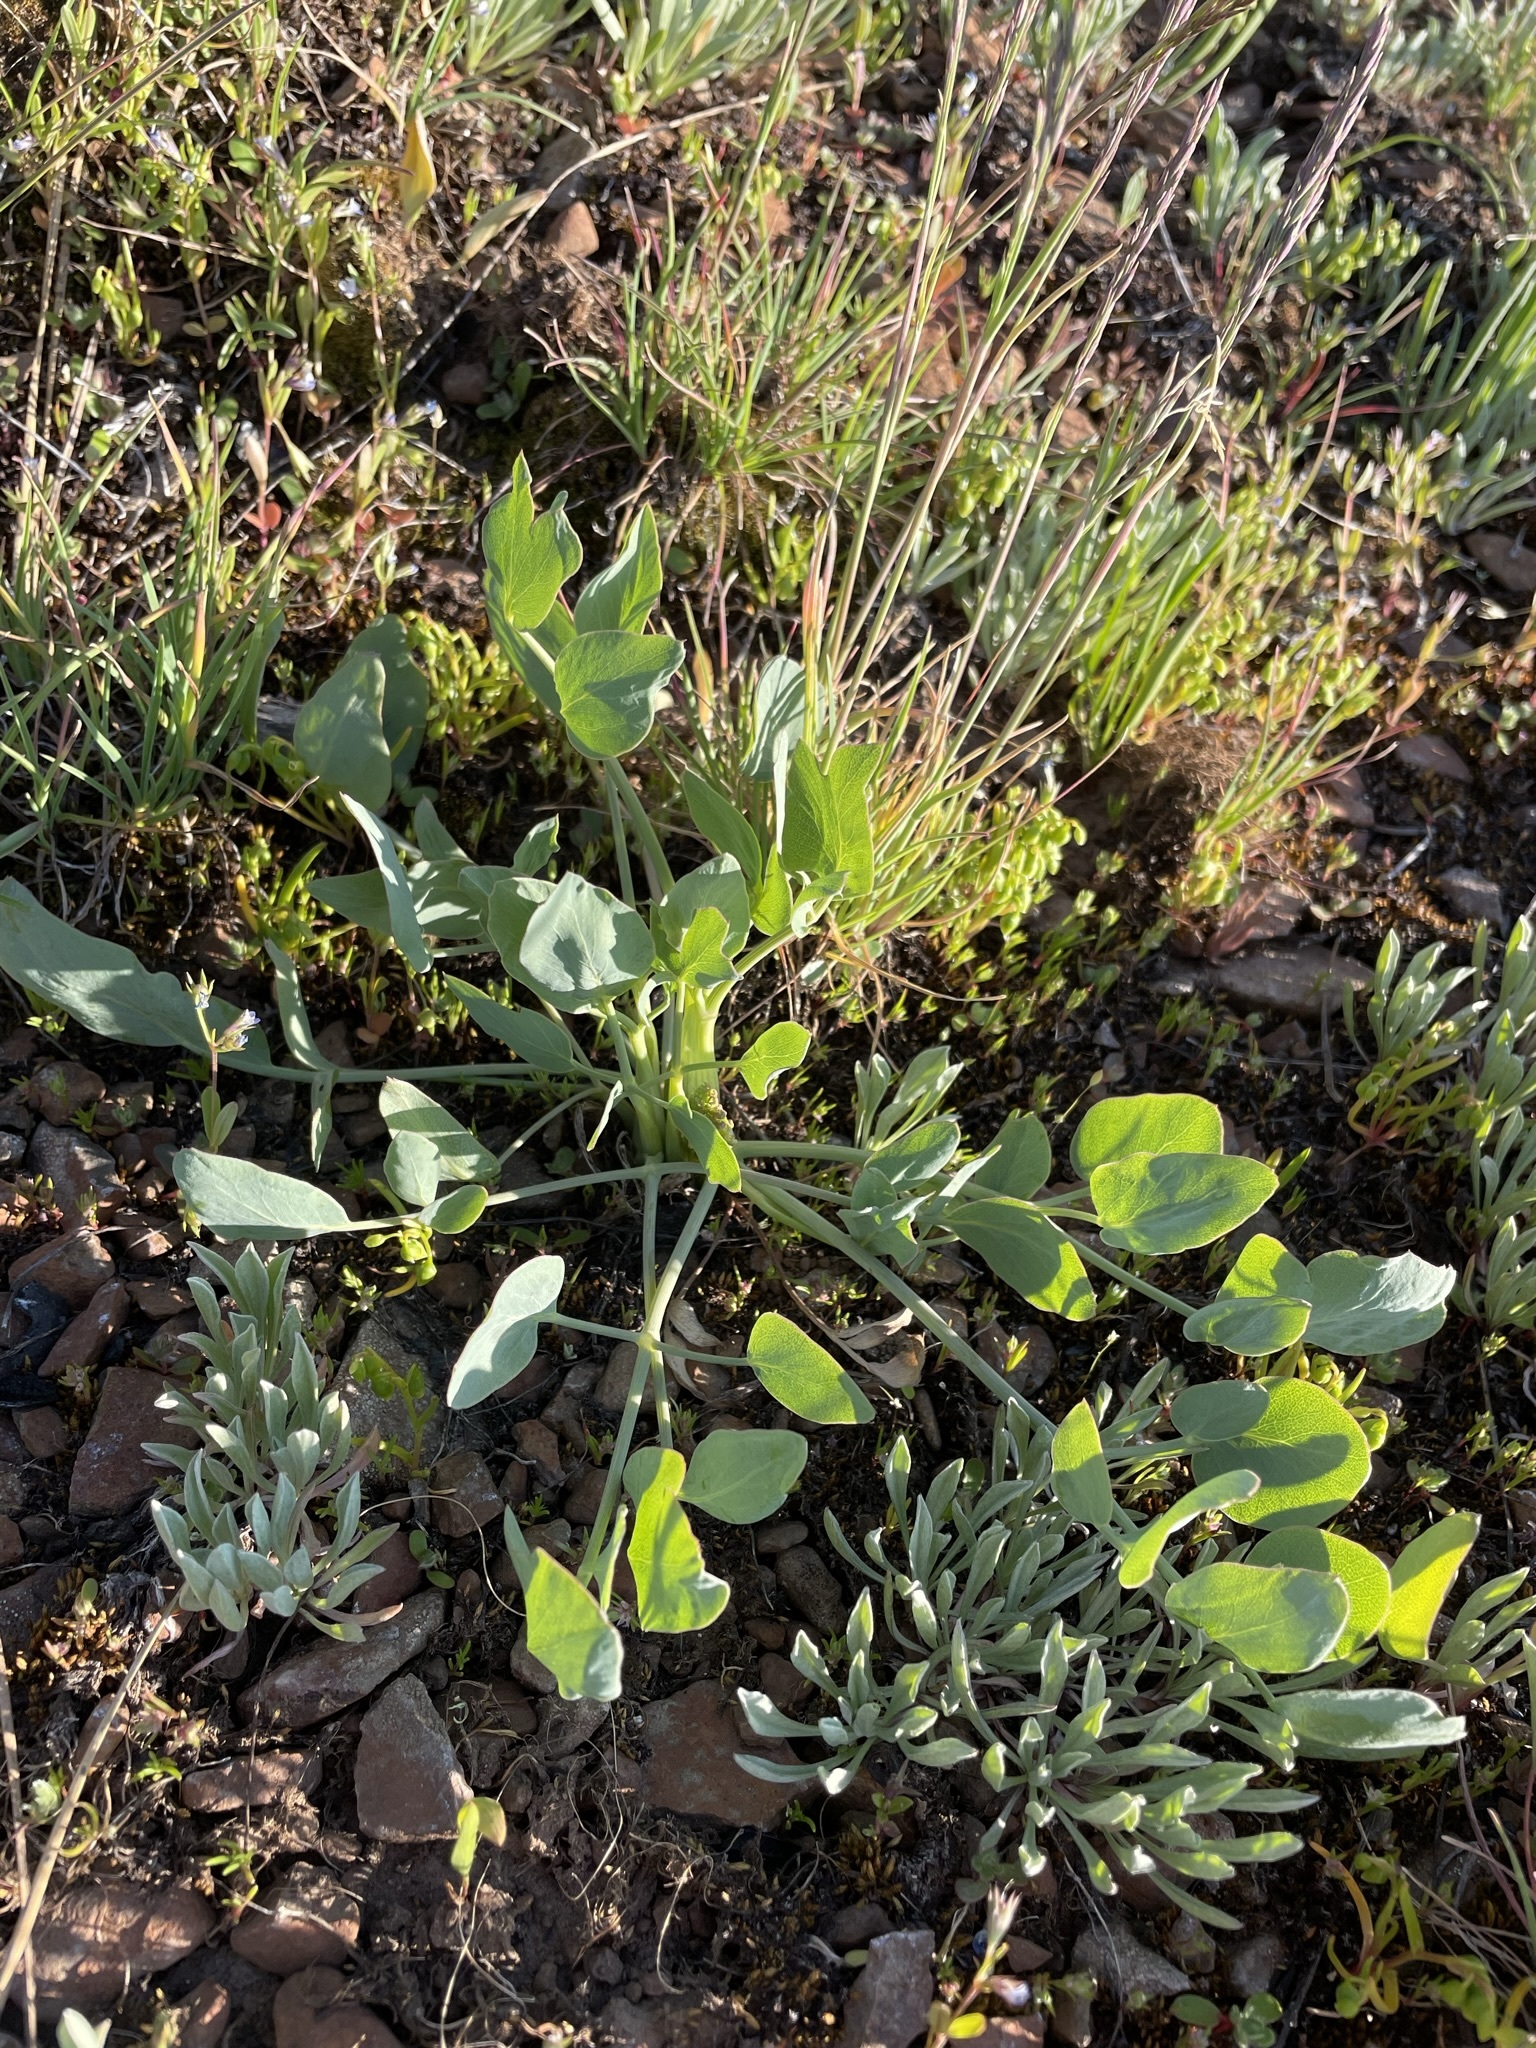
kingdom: Plantae
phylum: Tracheophyta
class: Magnoliopsida
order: Apiales
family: Apiaceae
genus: Lomatium
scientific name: Lomatium nudicaule
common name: Pestle lomatium
